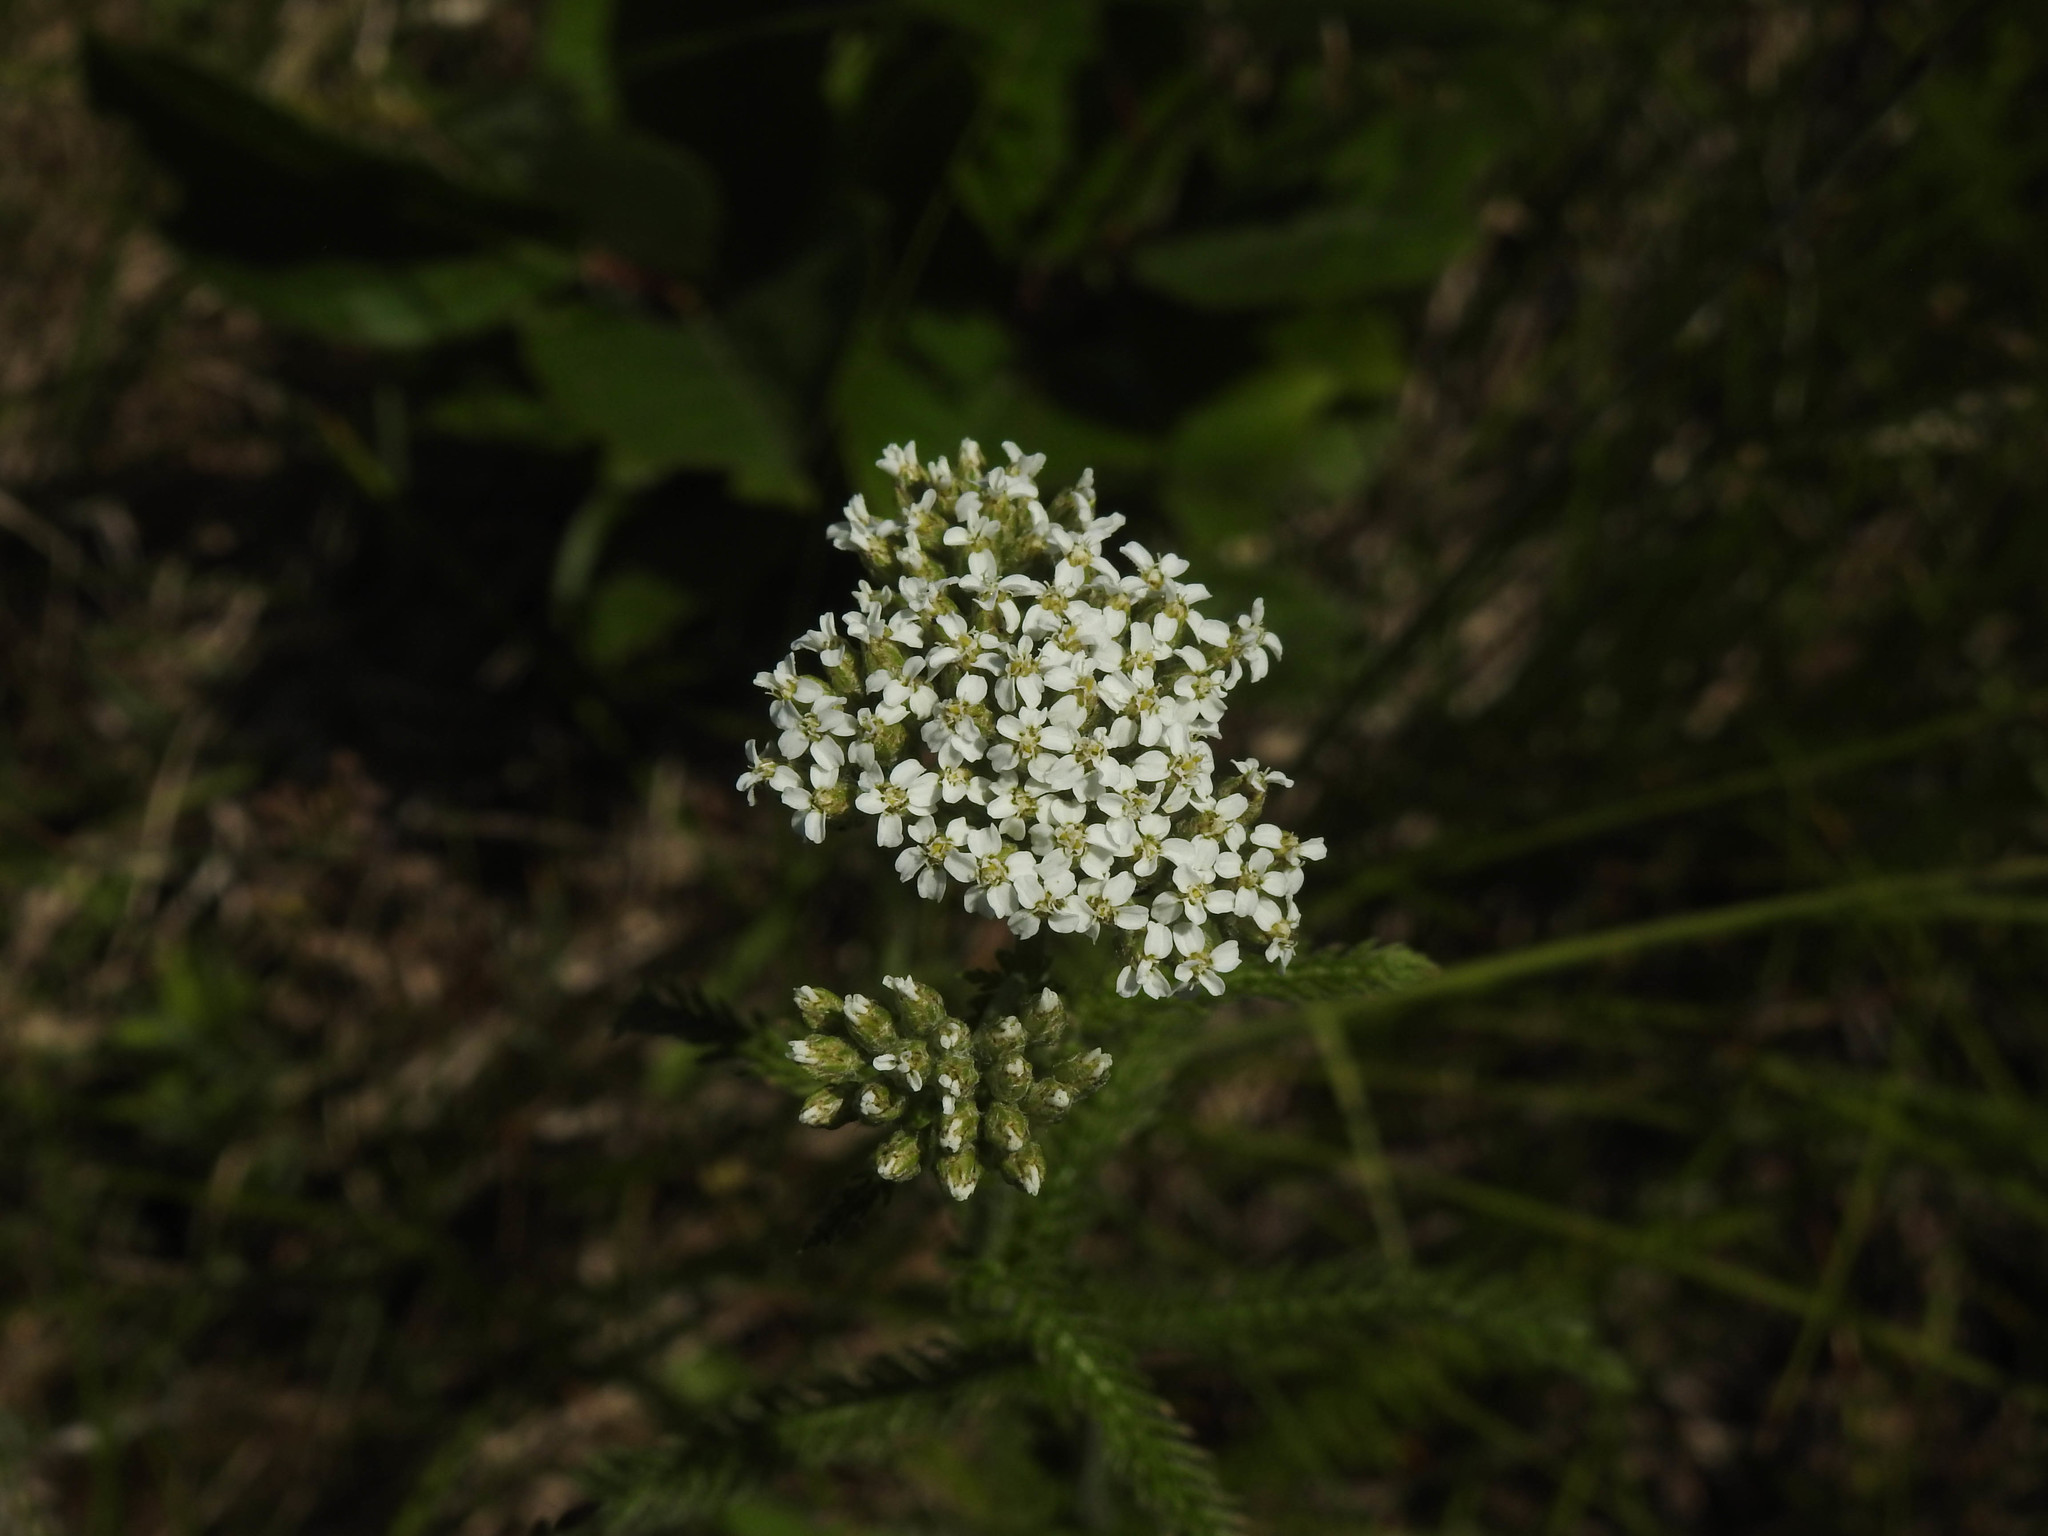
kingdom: Plantae
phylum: Tracheophyta
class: Magnoliopsida
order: Asterales
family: Asteraceae
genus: Achillea
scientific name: Achillea millefolium
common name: Yarrow
